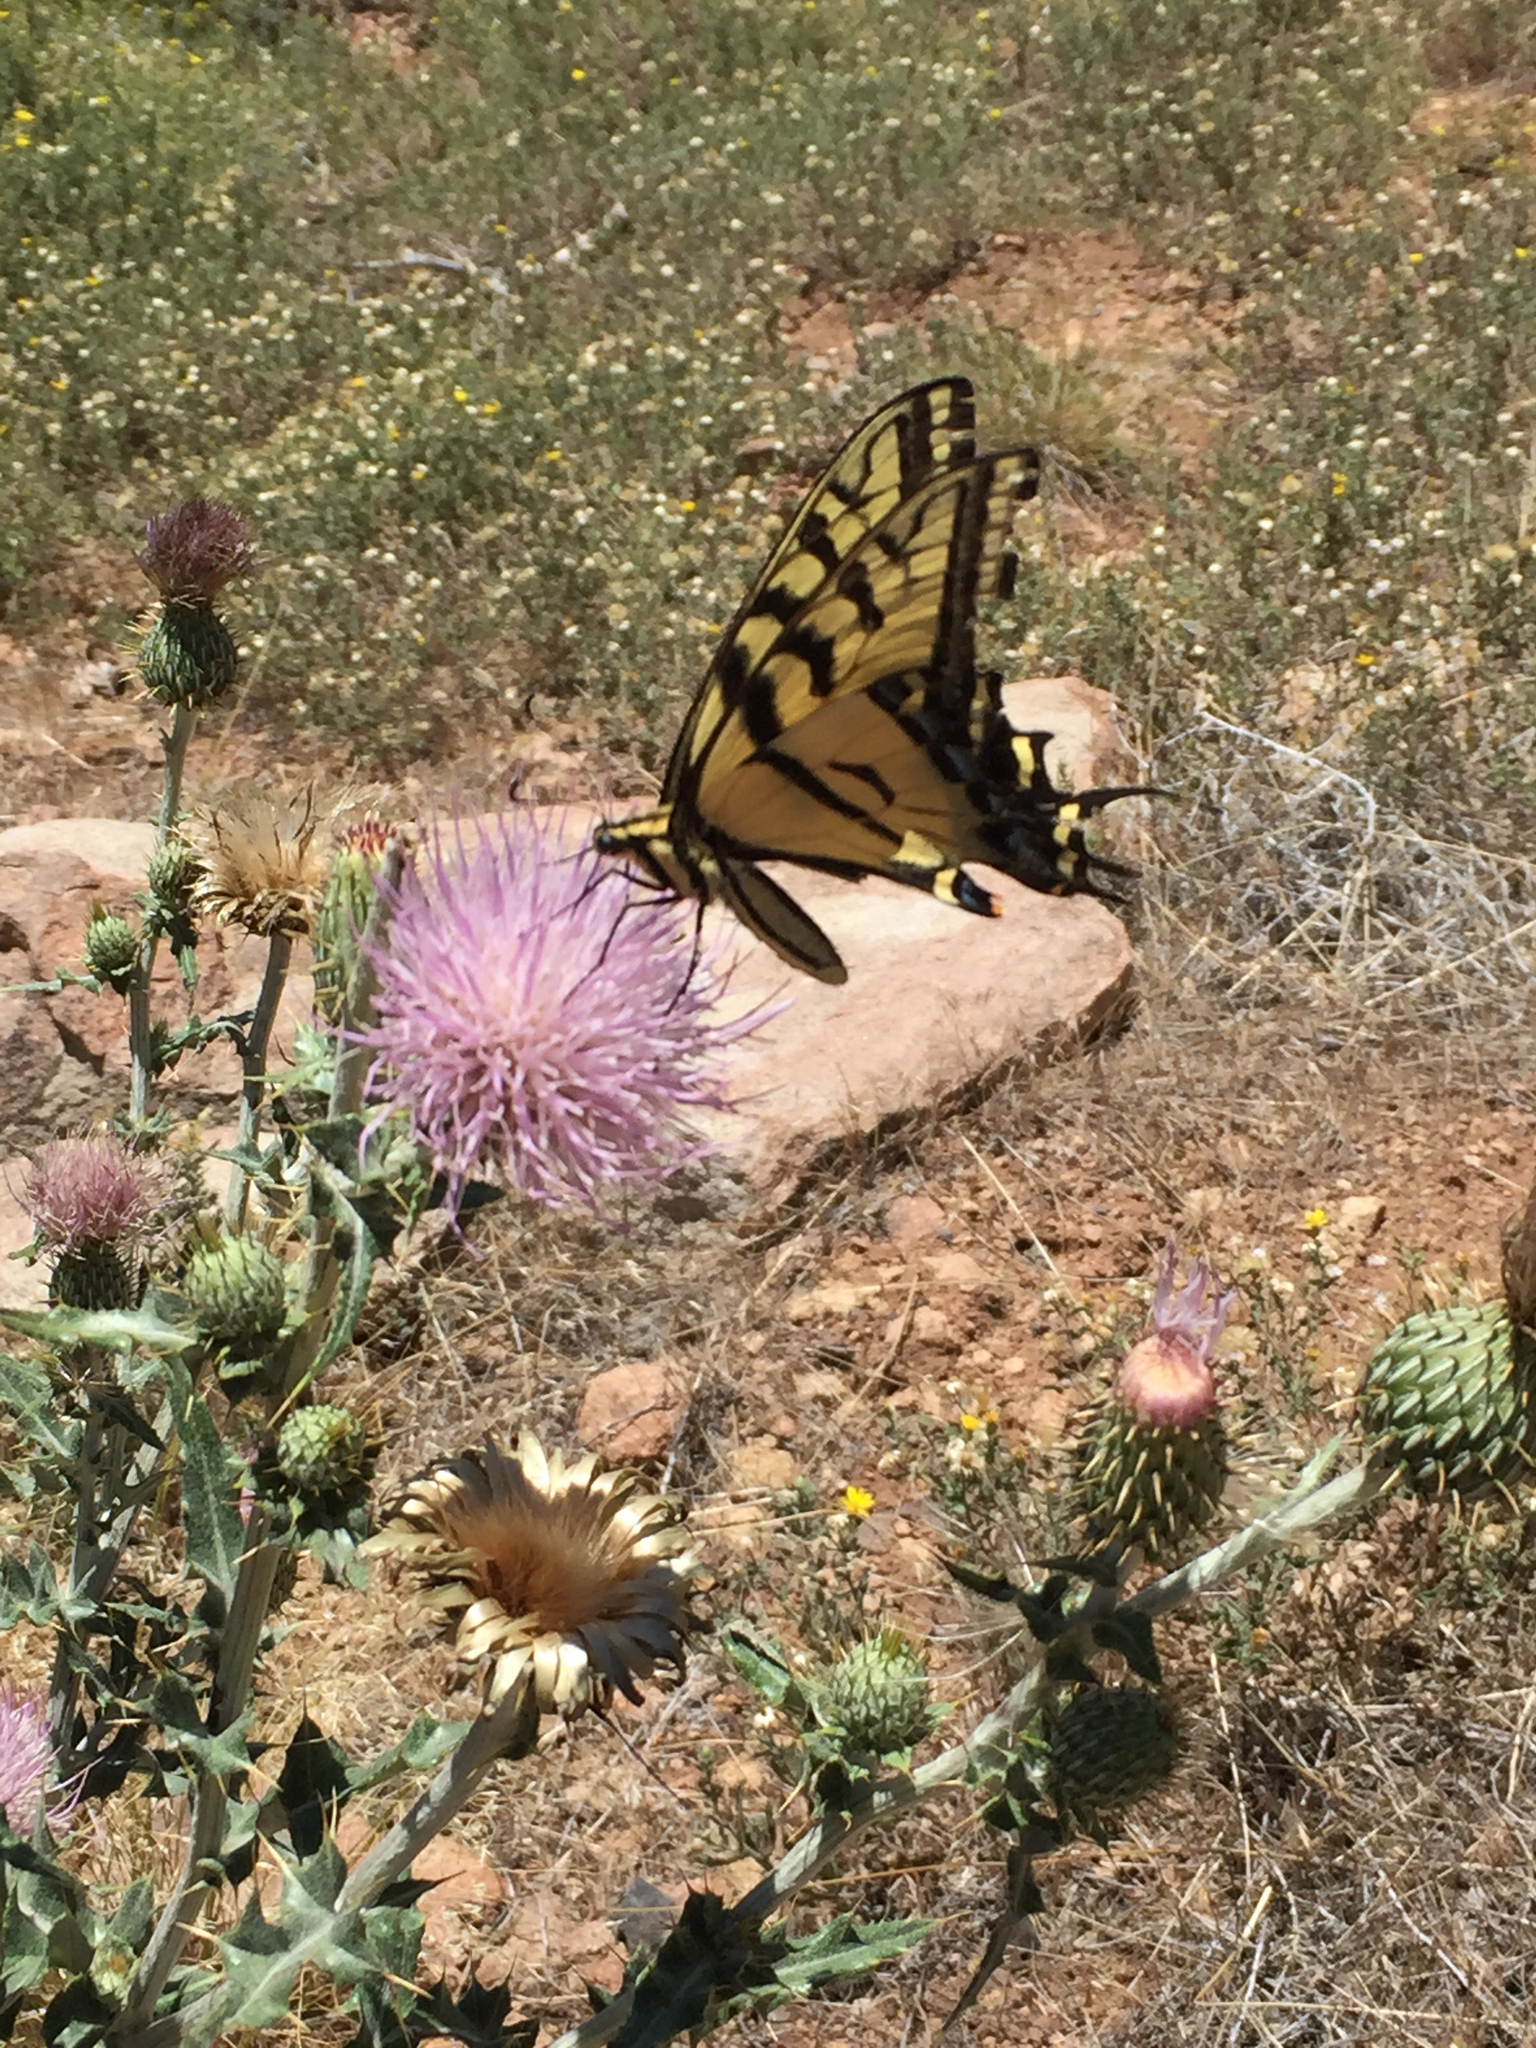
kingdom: Animalia
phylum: Arthropoda
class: Insecta
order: Lepidoptera
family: Papilionidae
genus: Papilio
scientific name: Papilio multicaudata
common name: Two-tailed tiger swallowtail
